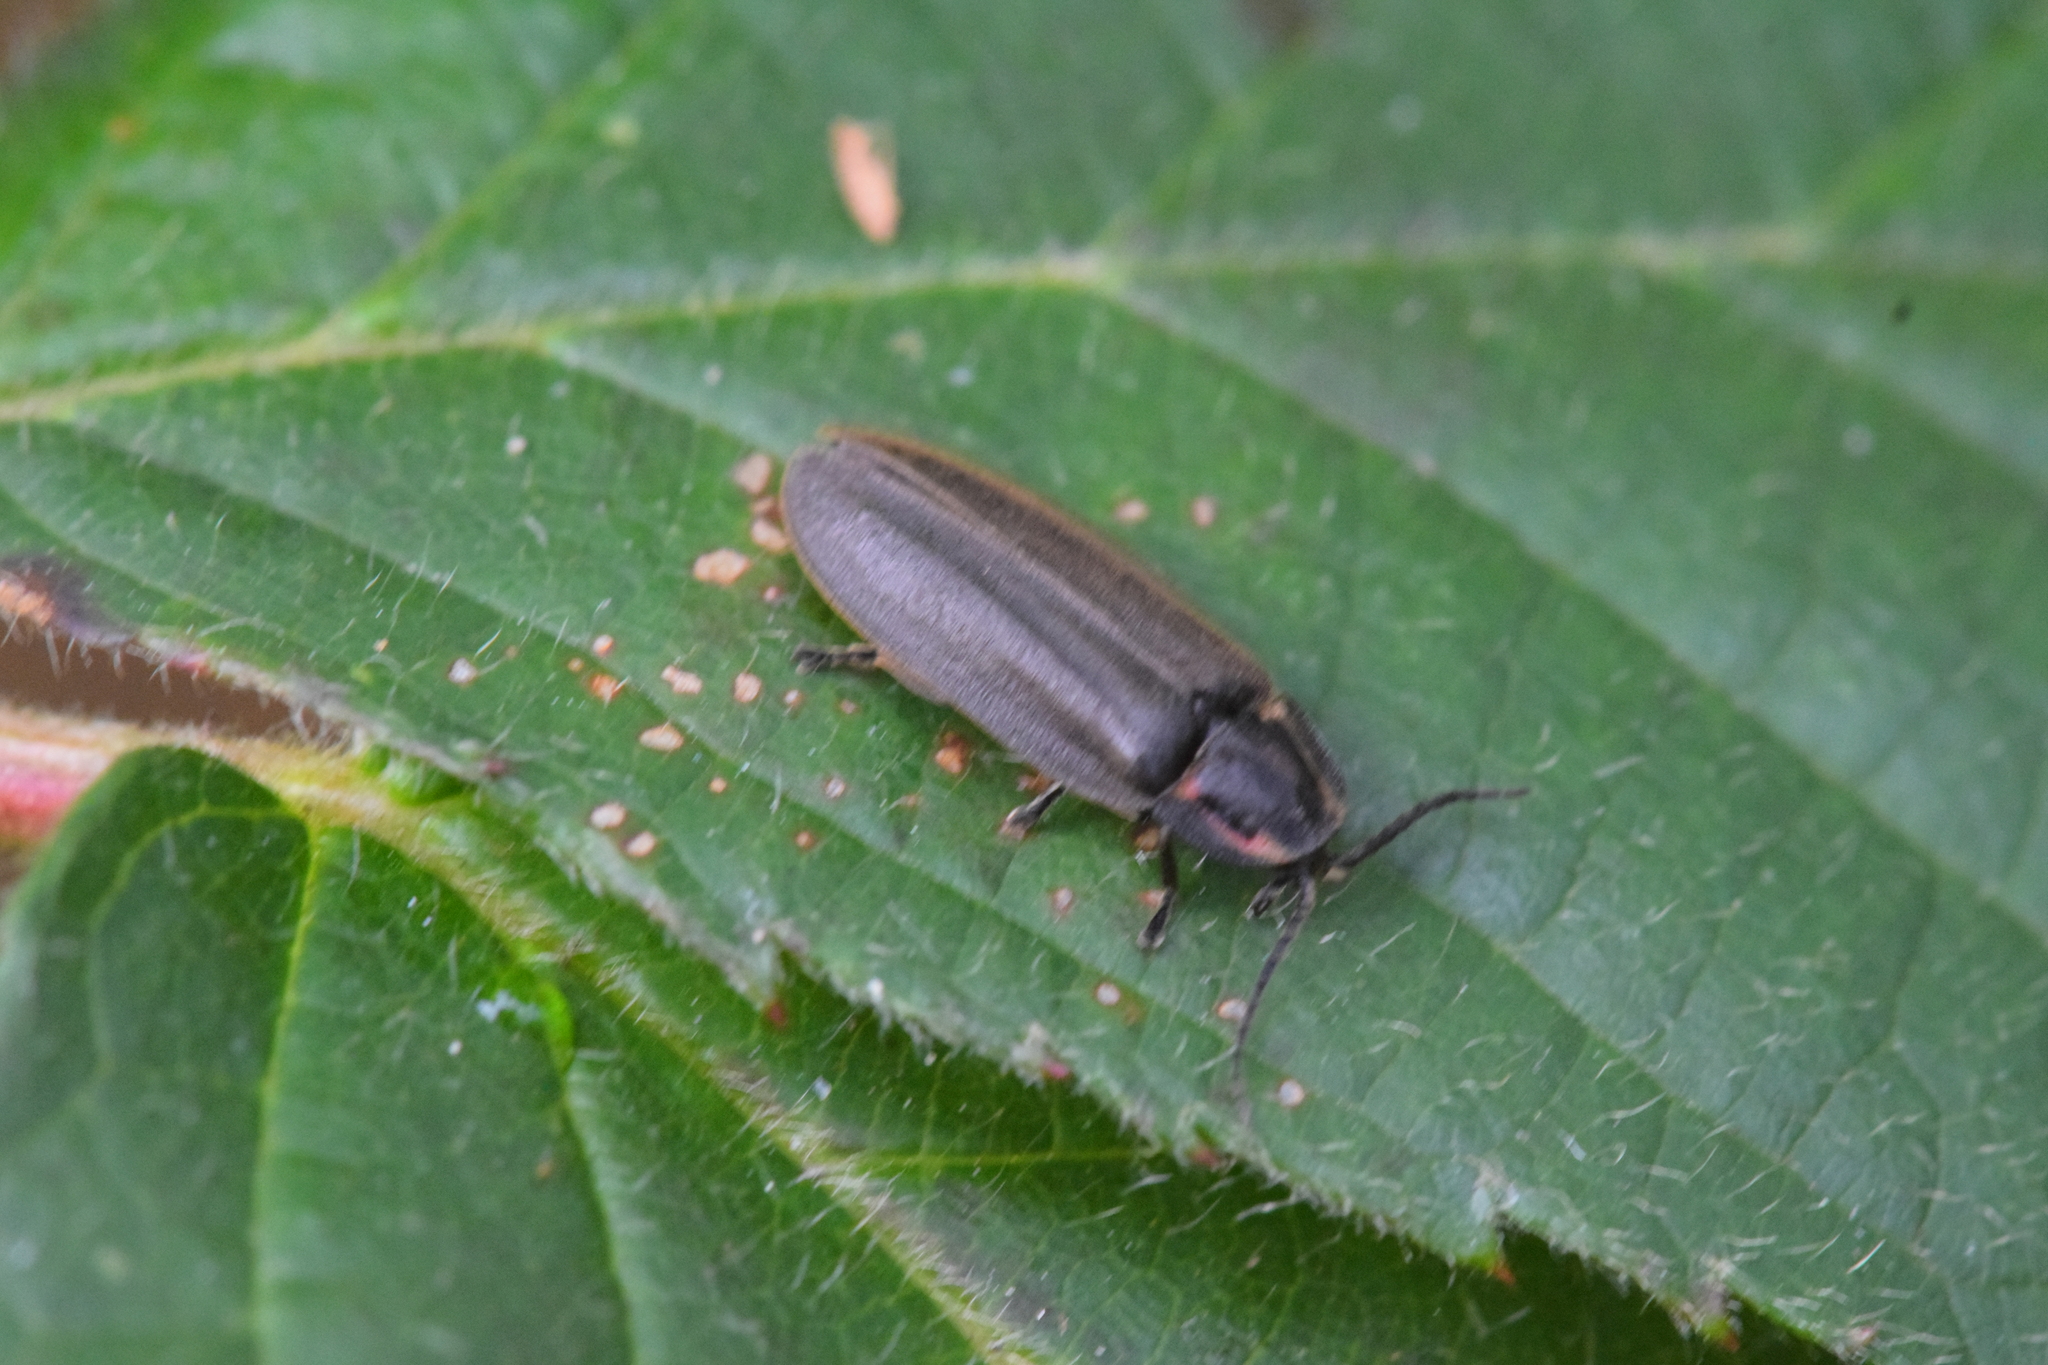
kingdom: Animalia
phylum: Arthropoda
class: Insecta
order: Coleoptera
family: Lampyridae
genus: Photinus
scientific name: Photinus corrusca
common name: Winter firefly
